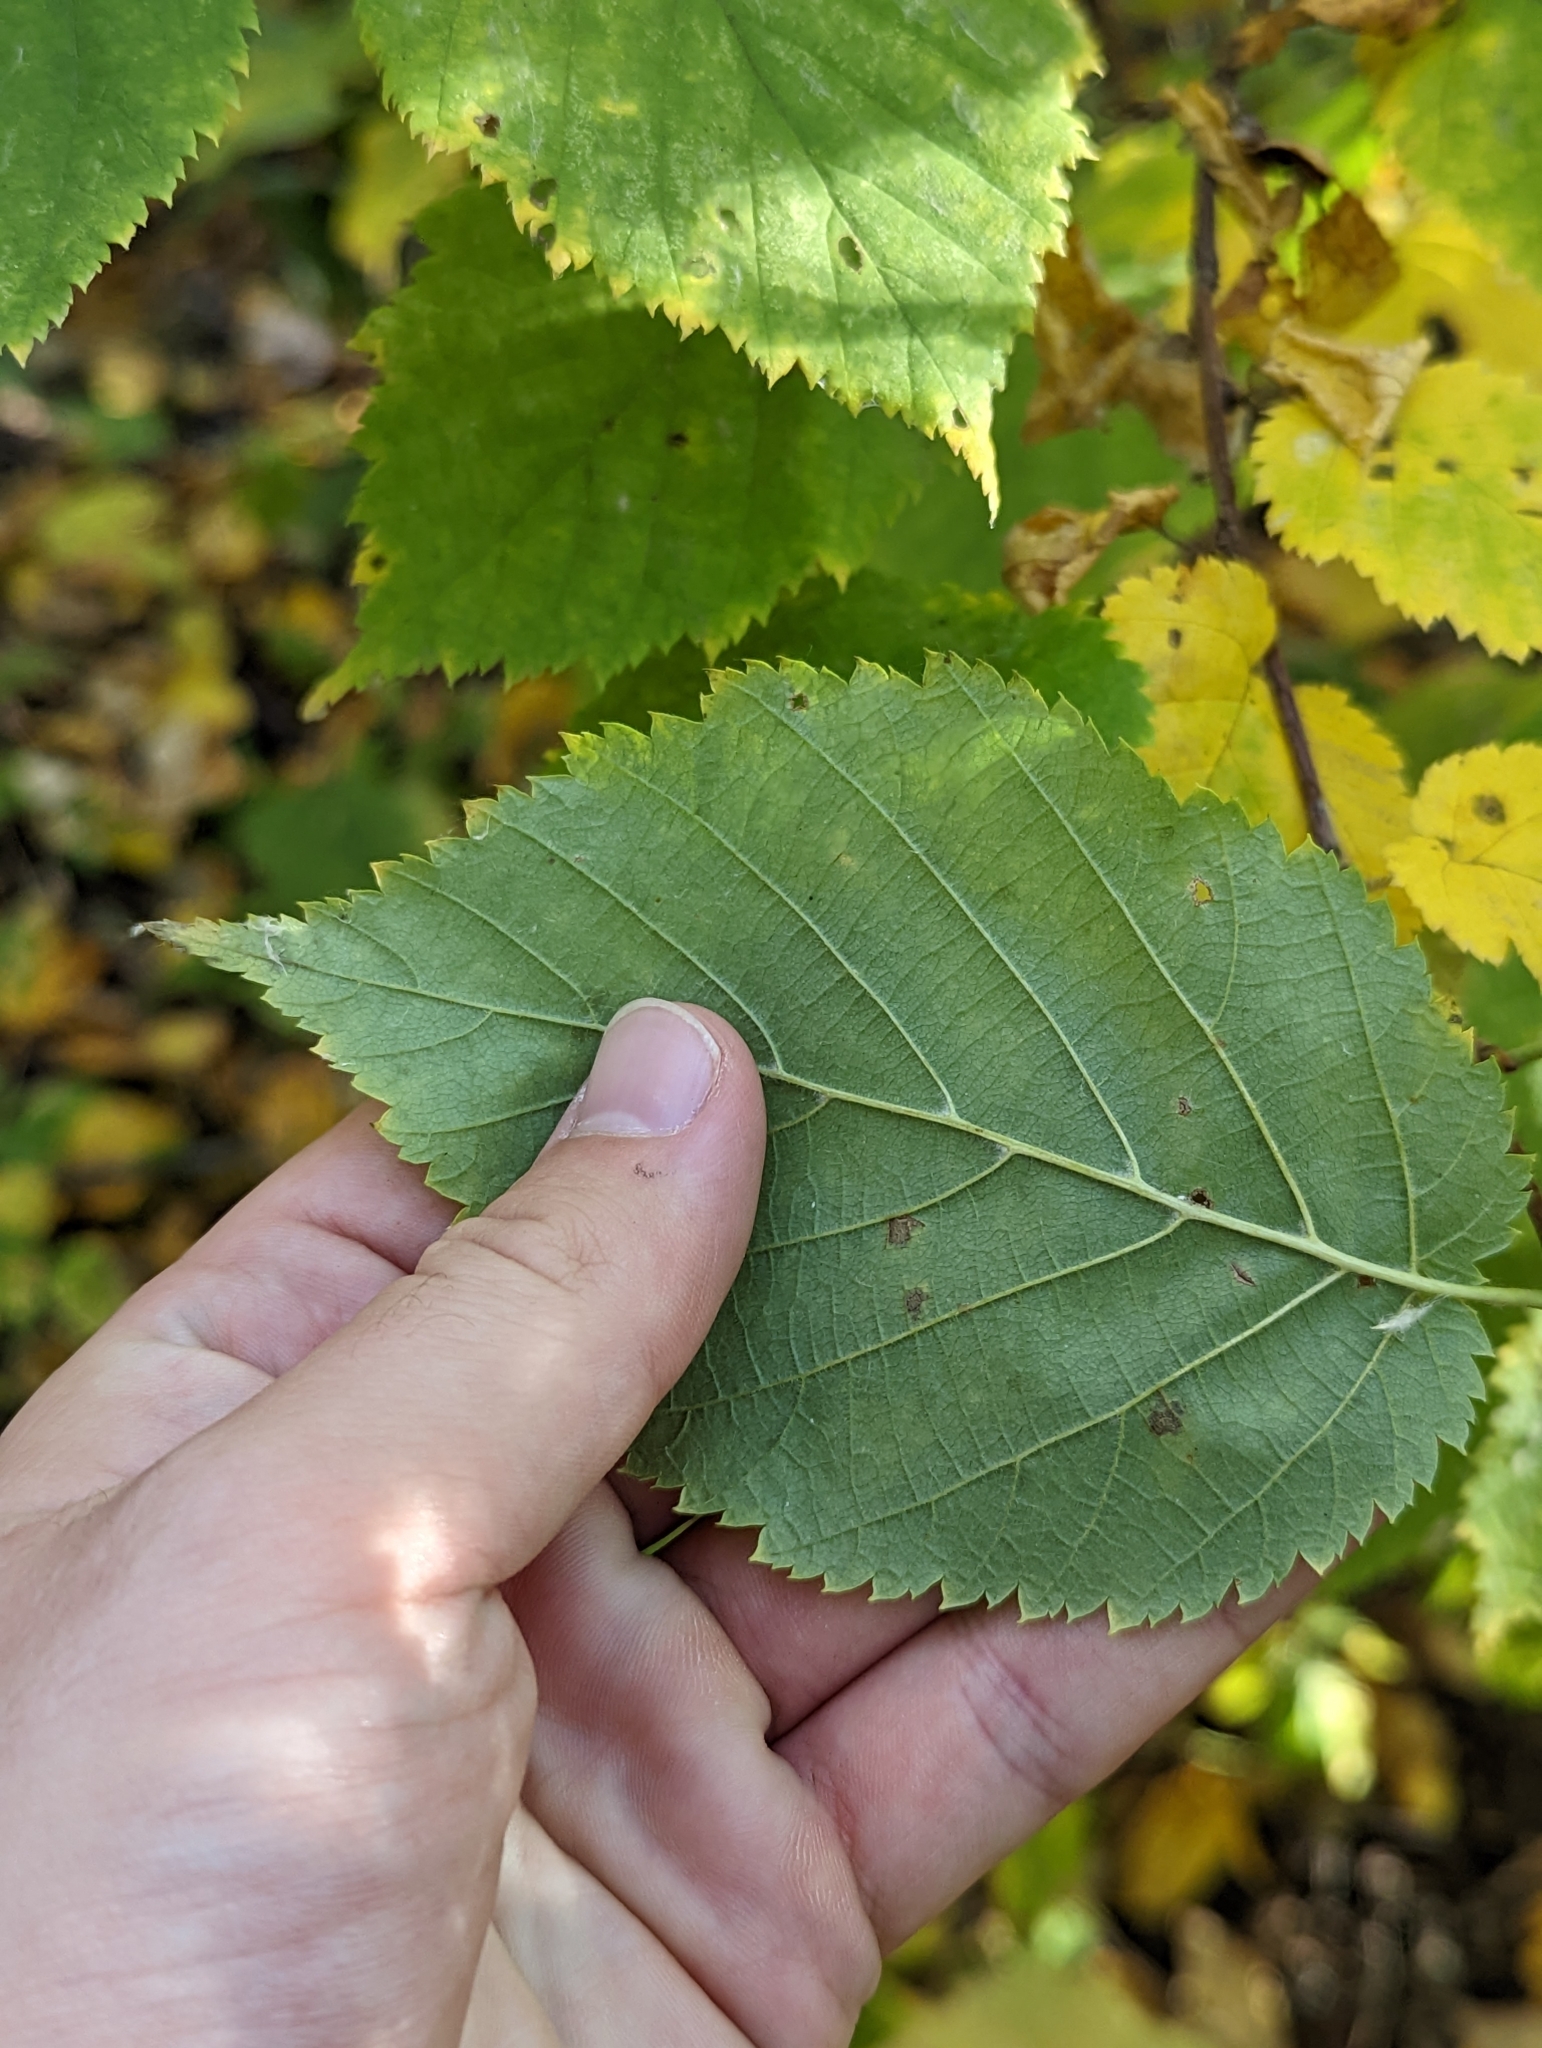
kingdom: Plantae
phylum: Tracheophyta
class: Magnoliopsida
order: Fagales
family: Betulaceae
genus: Corylus
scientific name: Corylus cornuta
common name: Beaked hazel
